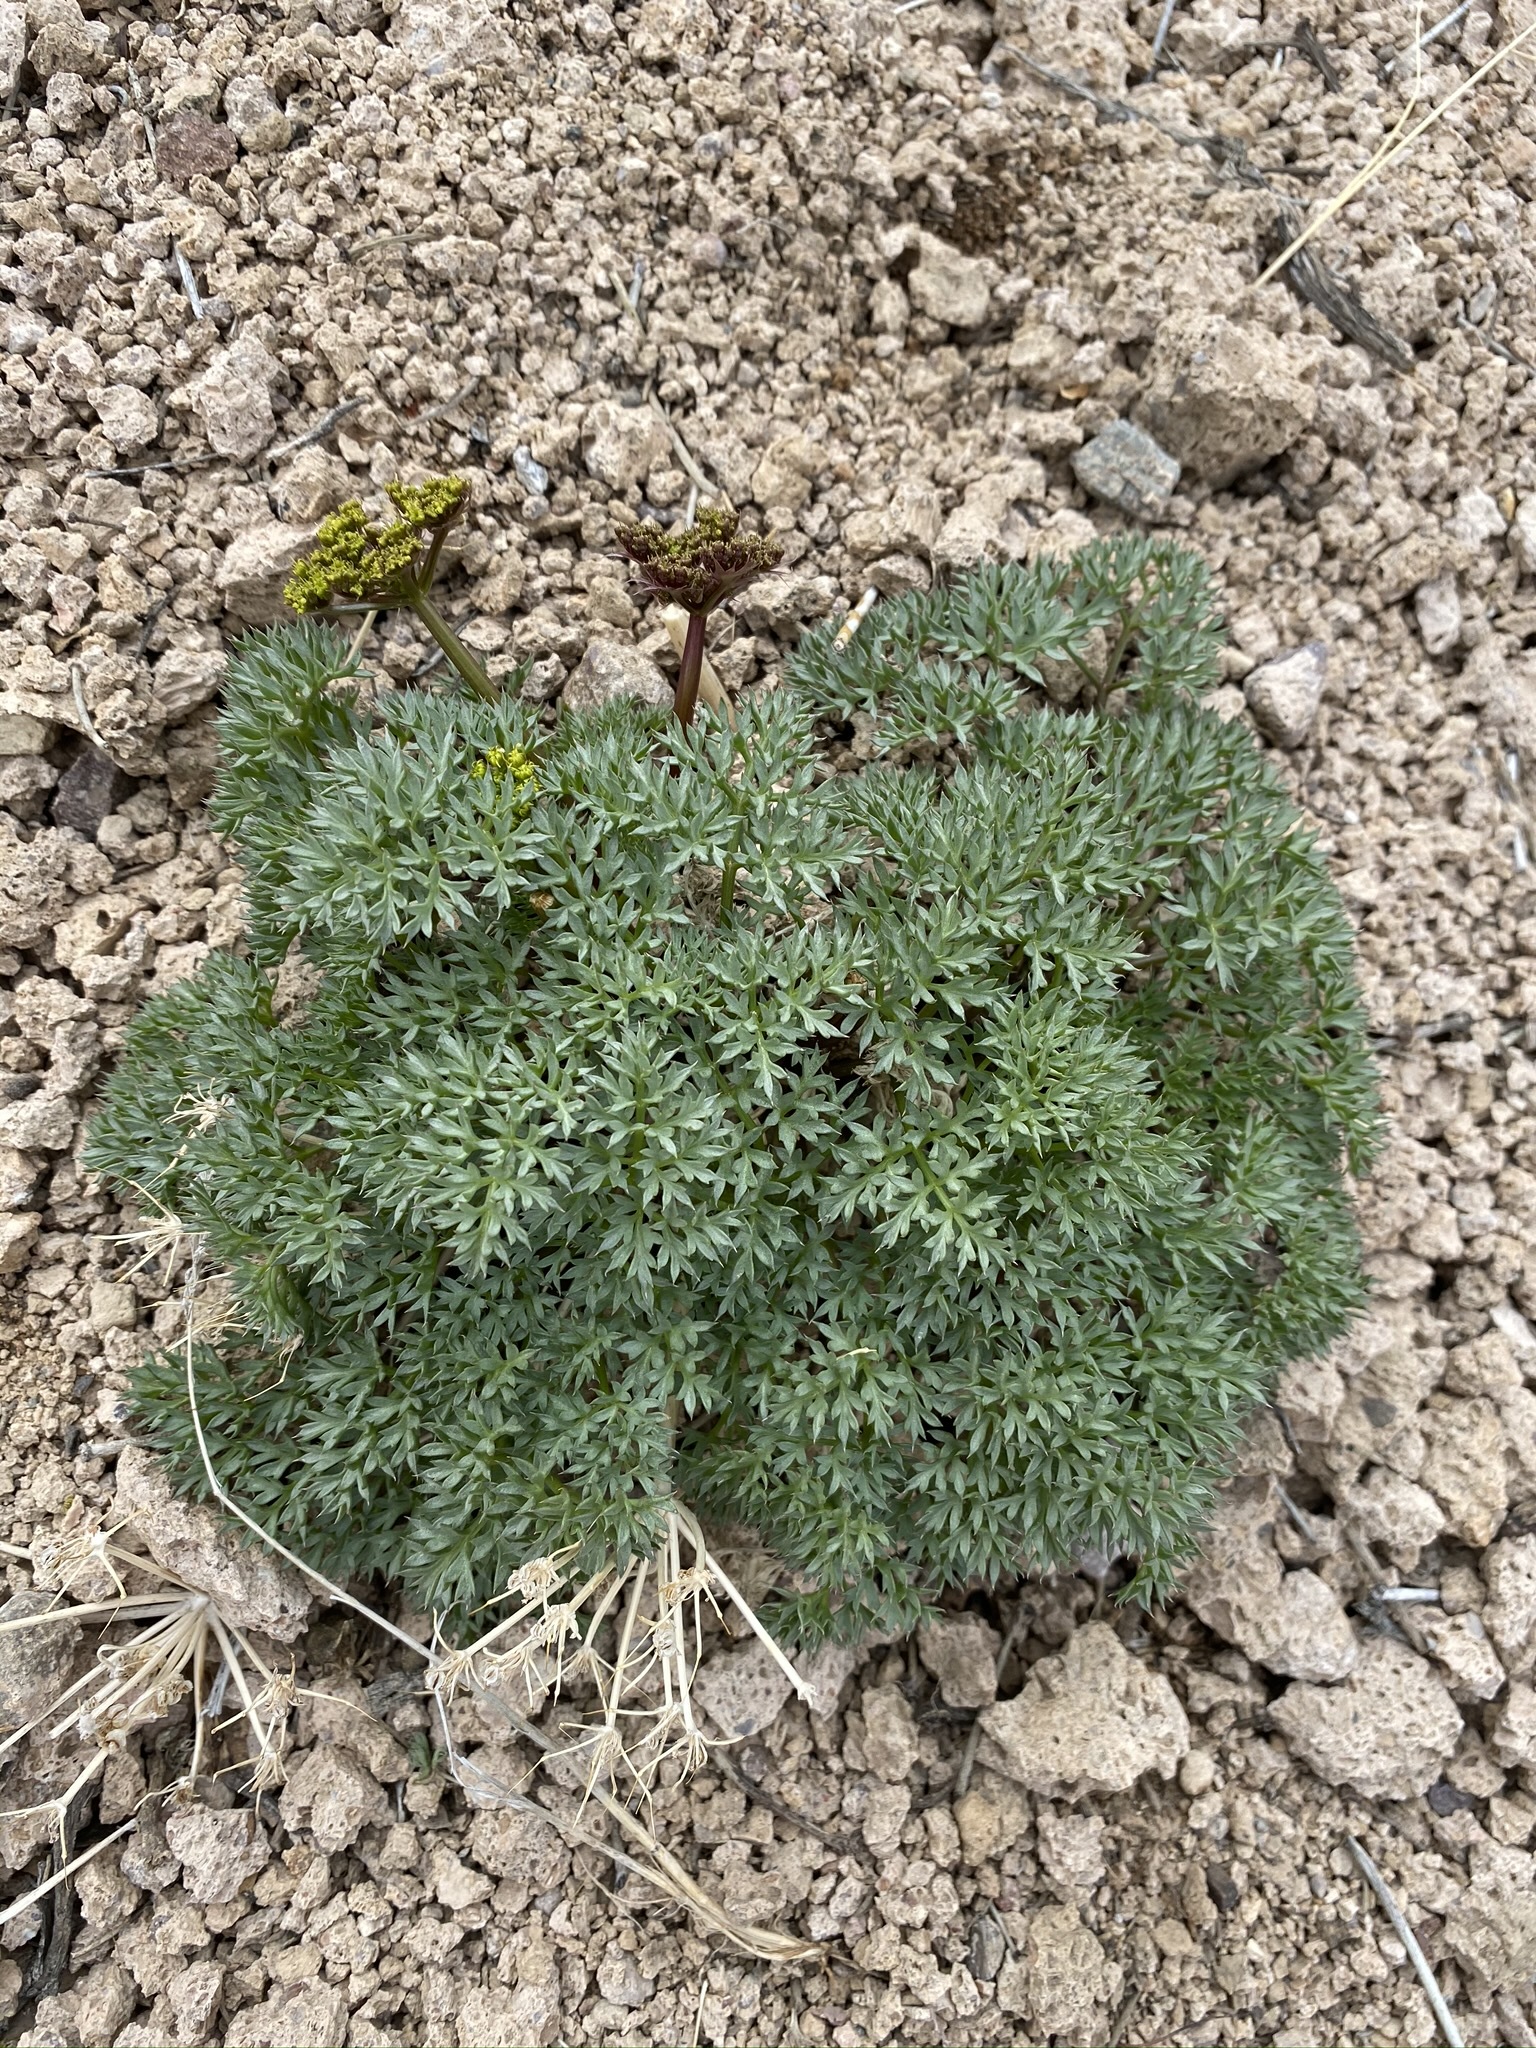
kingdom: Plantae
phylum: Tracheophyta
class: Magnoliopsida
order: Apiales
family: Apiaceae
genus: Aulospermum
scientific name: Aulospermum panamintense
